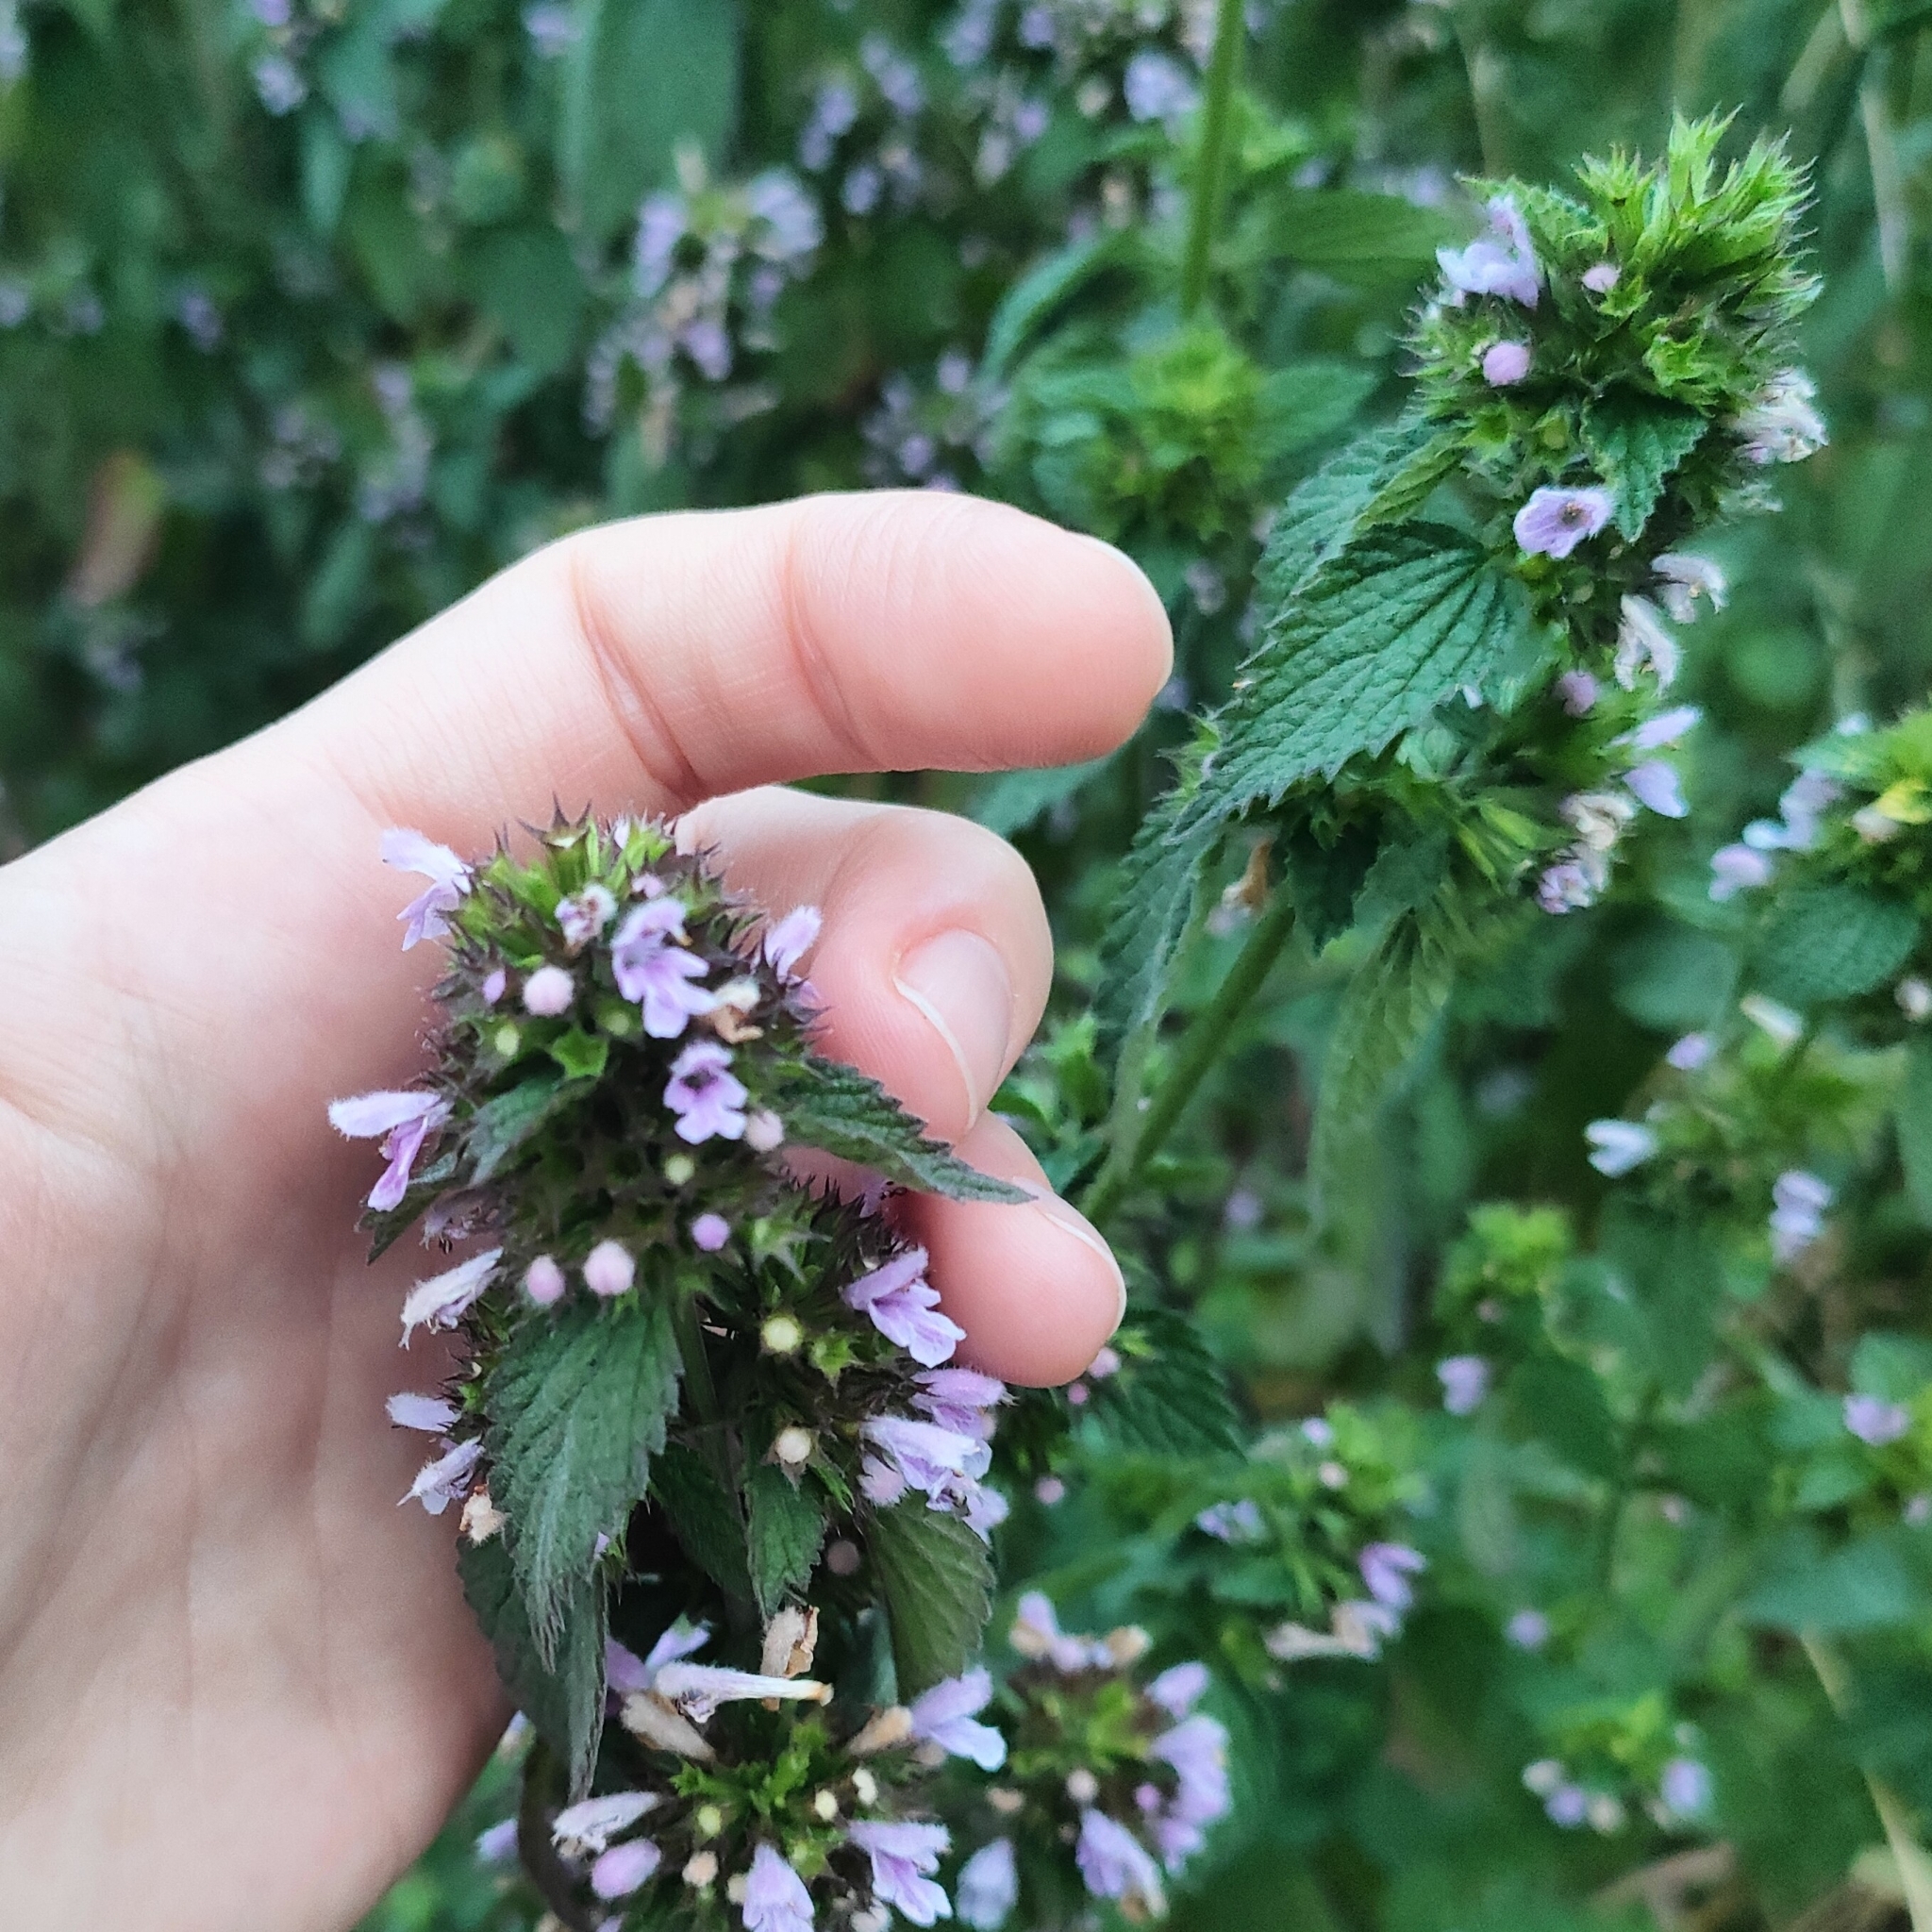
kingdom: Plantae
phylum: Tracheophyta
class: Magnoliopsida
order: Lamiales
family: Lamiaceae
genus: Ballota
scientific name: Ballota nigra
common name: Black horehound
